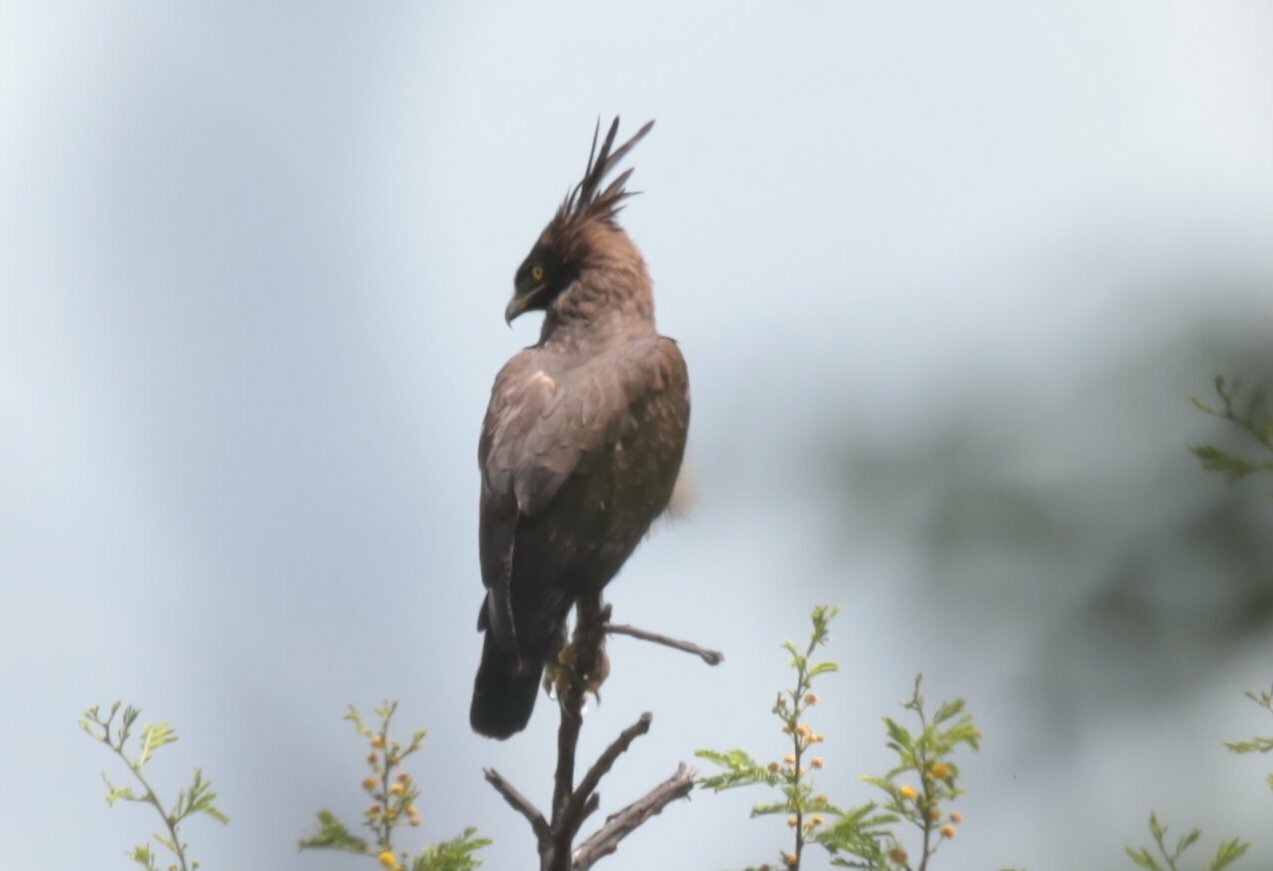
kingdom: Animalia
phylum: Chordata
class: Aves
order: Accipitriformes
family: Accipitridae
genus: Lophaetus
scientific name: Lophaetus occipitalis
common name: Long-crested eagle
